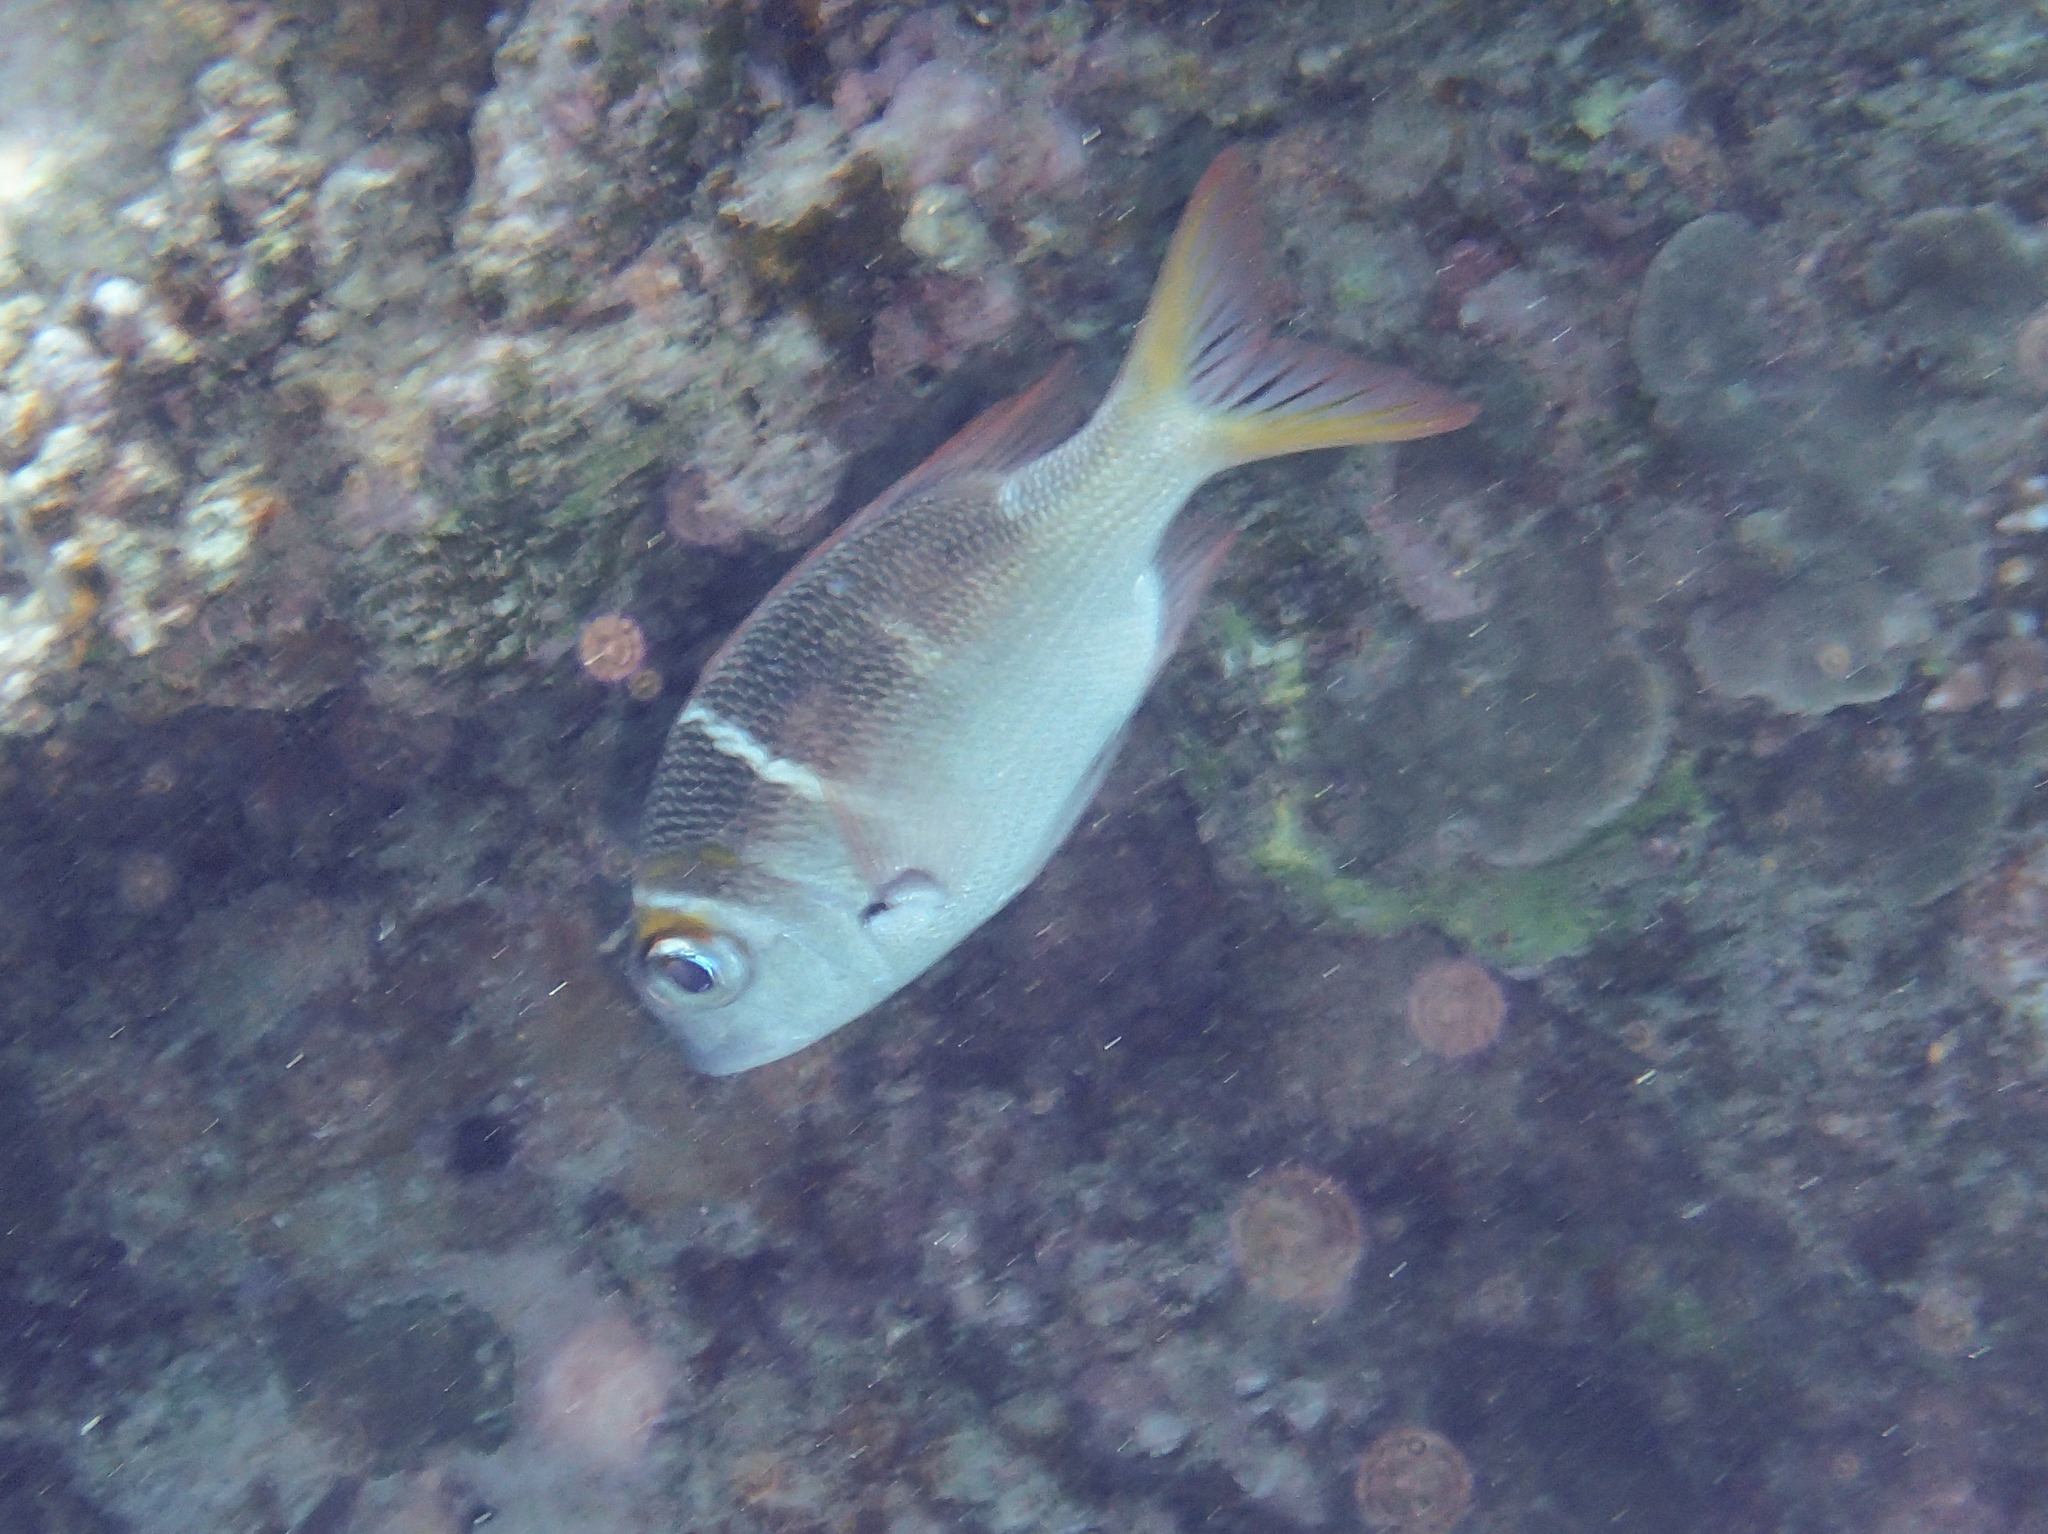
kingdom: Animalia
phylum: Chordata
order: Perciformes
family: Lethrinidae
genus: Monotaxis
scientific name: Monotaxis heterodon
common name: Redfin emperor
